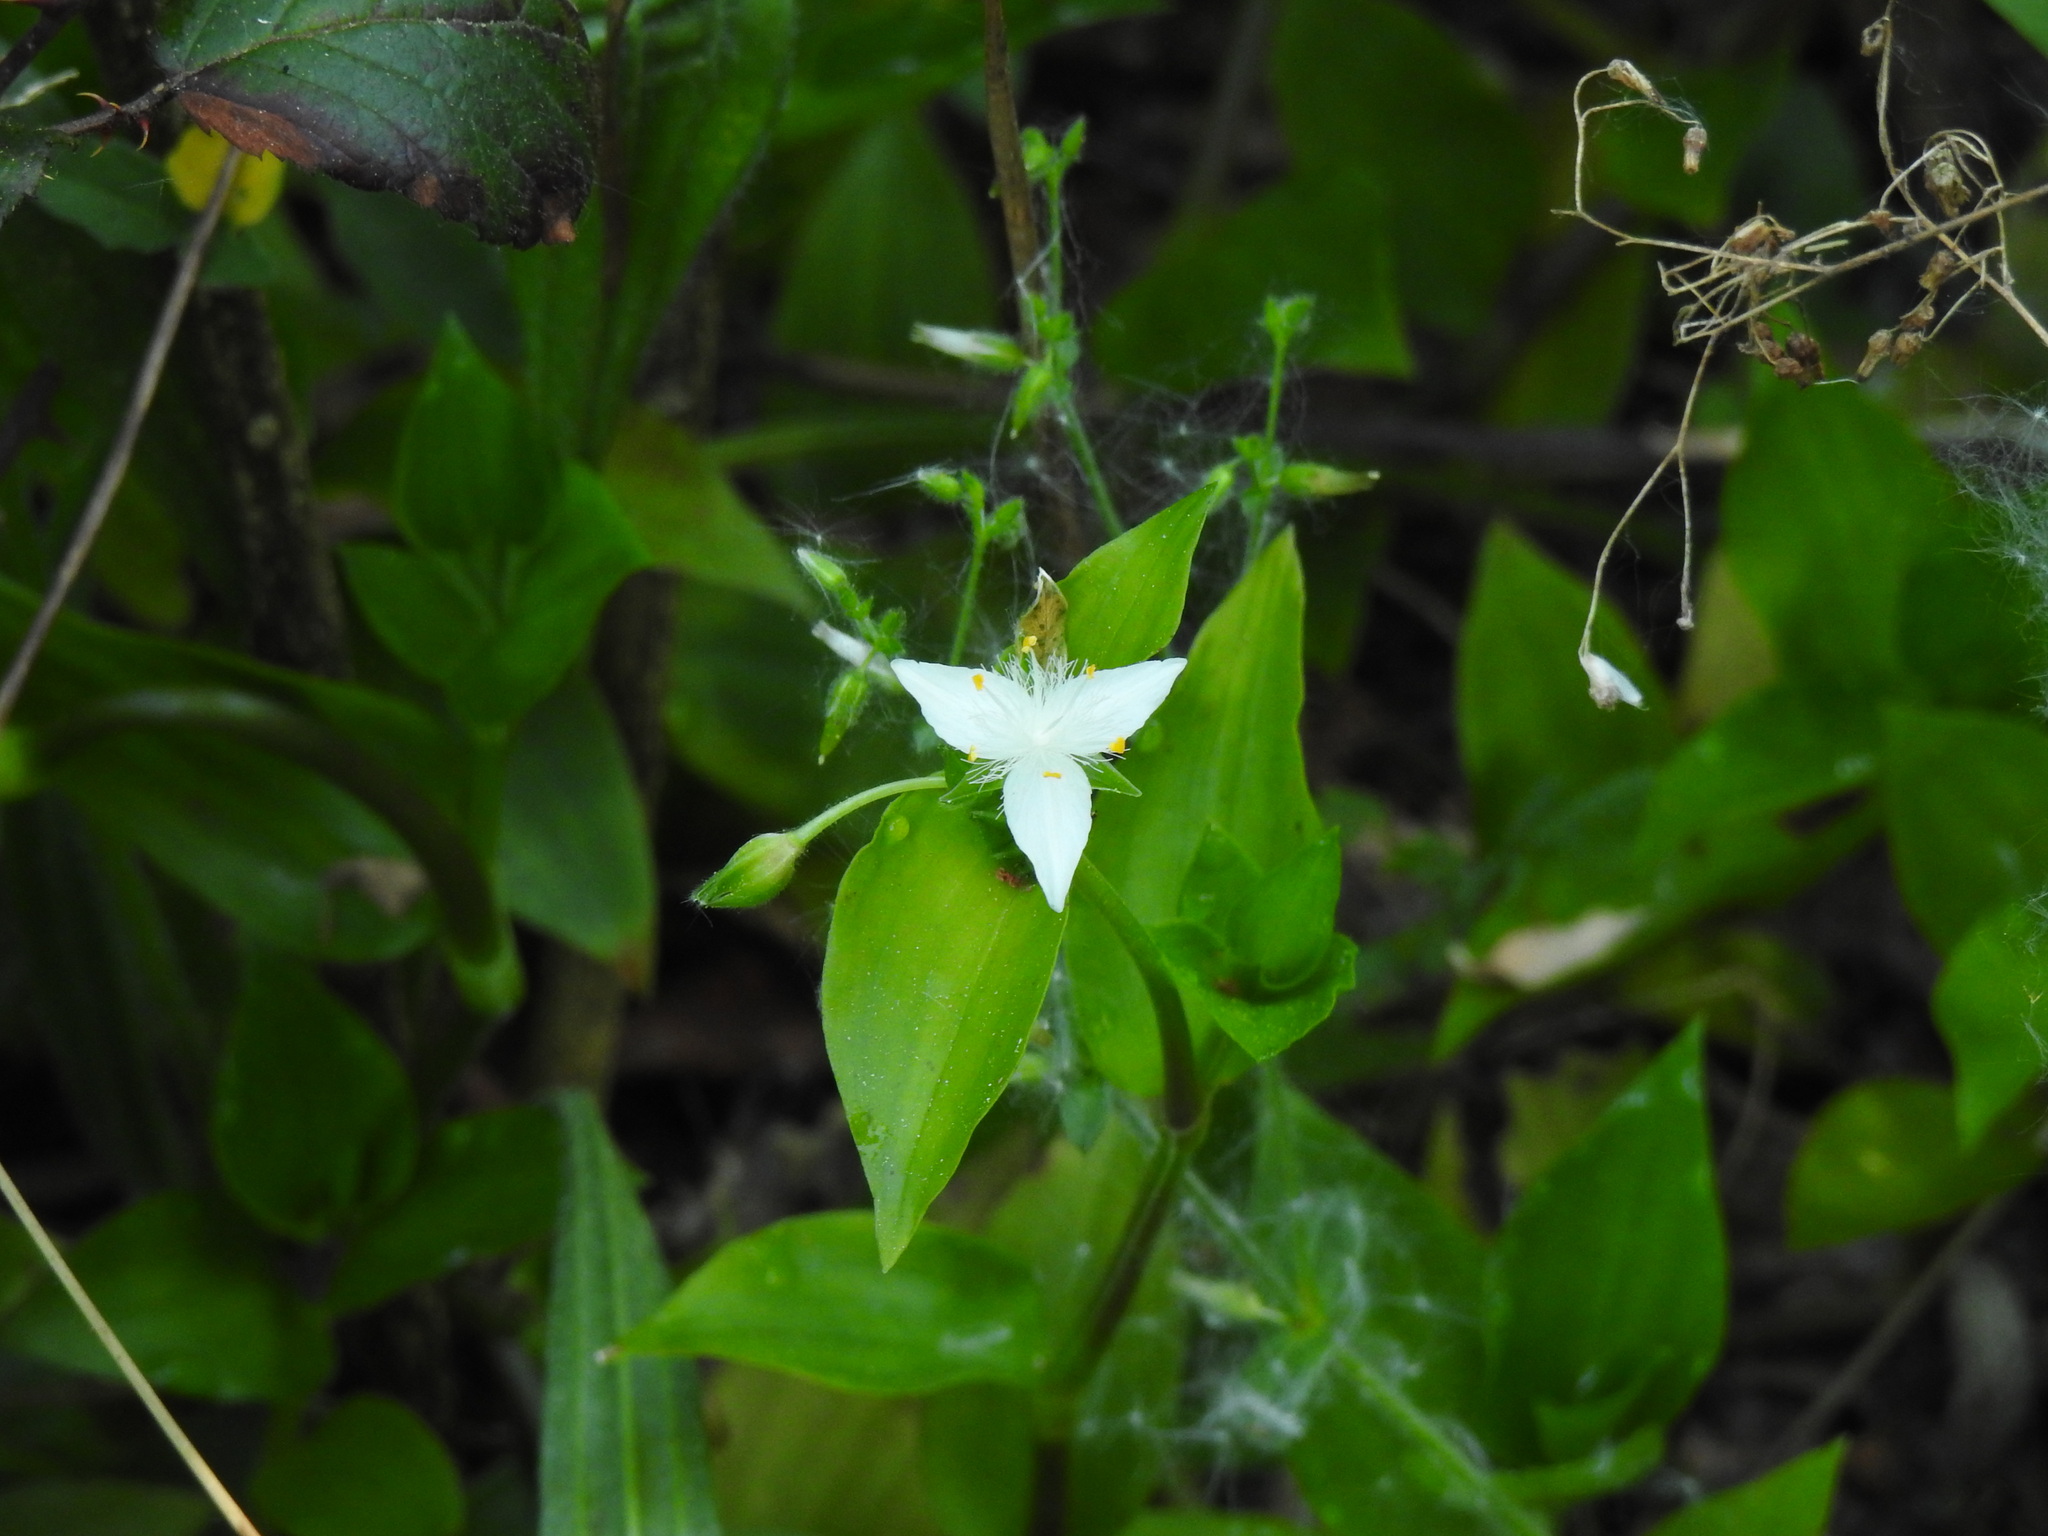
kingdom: Plantae
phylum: Tracheophyta
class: Liliopsida
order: Commelinales
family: Commelinaceae
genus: Tradescantia
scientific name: Tradescantia fluminensis
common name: Wandering-jew
